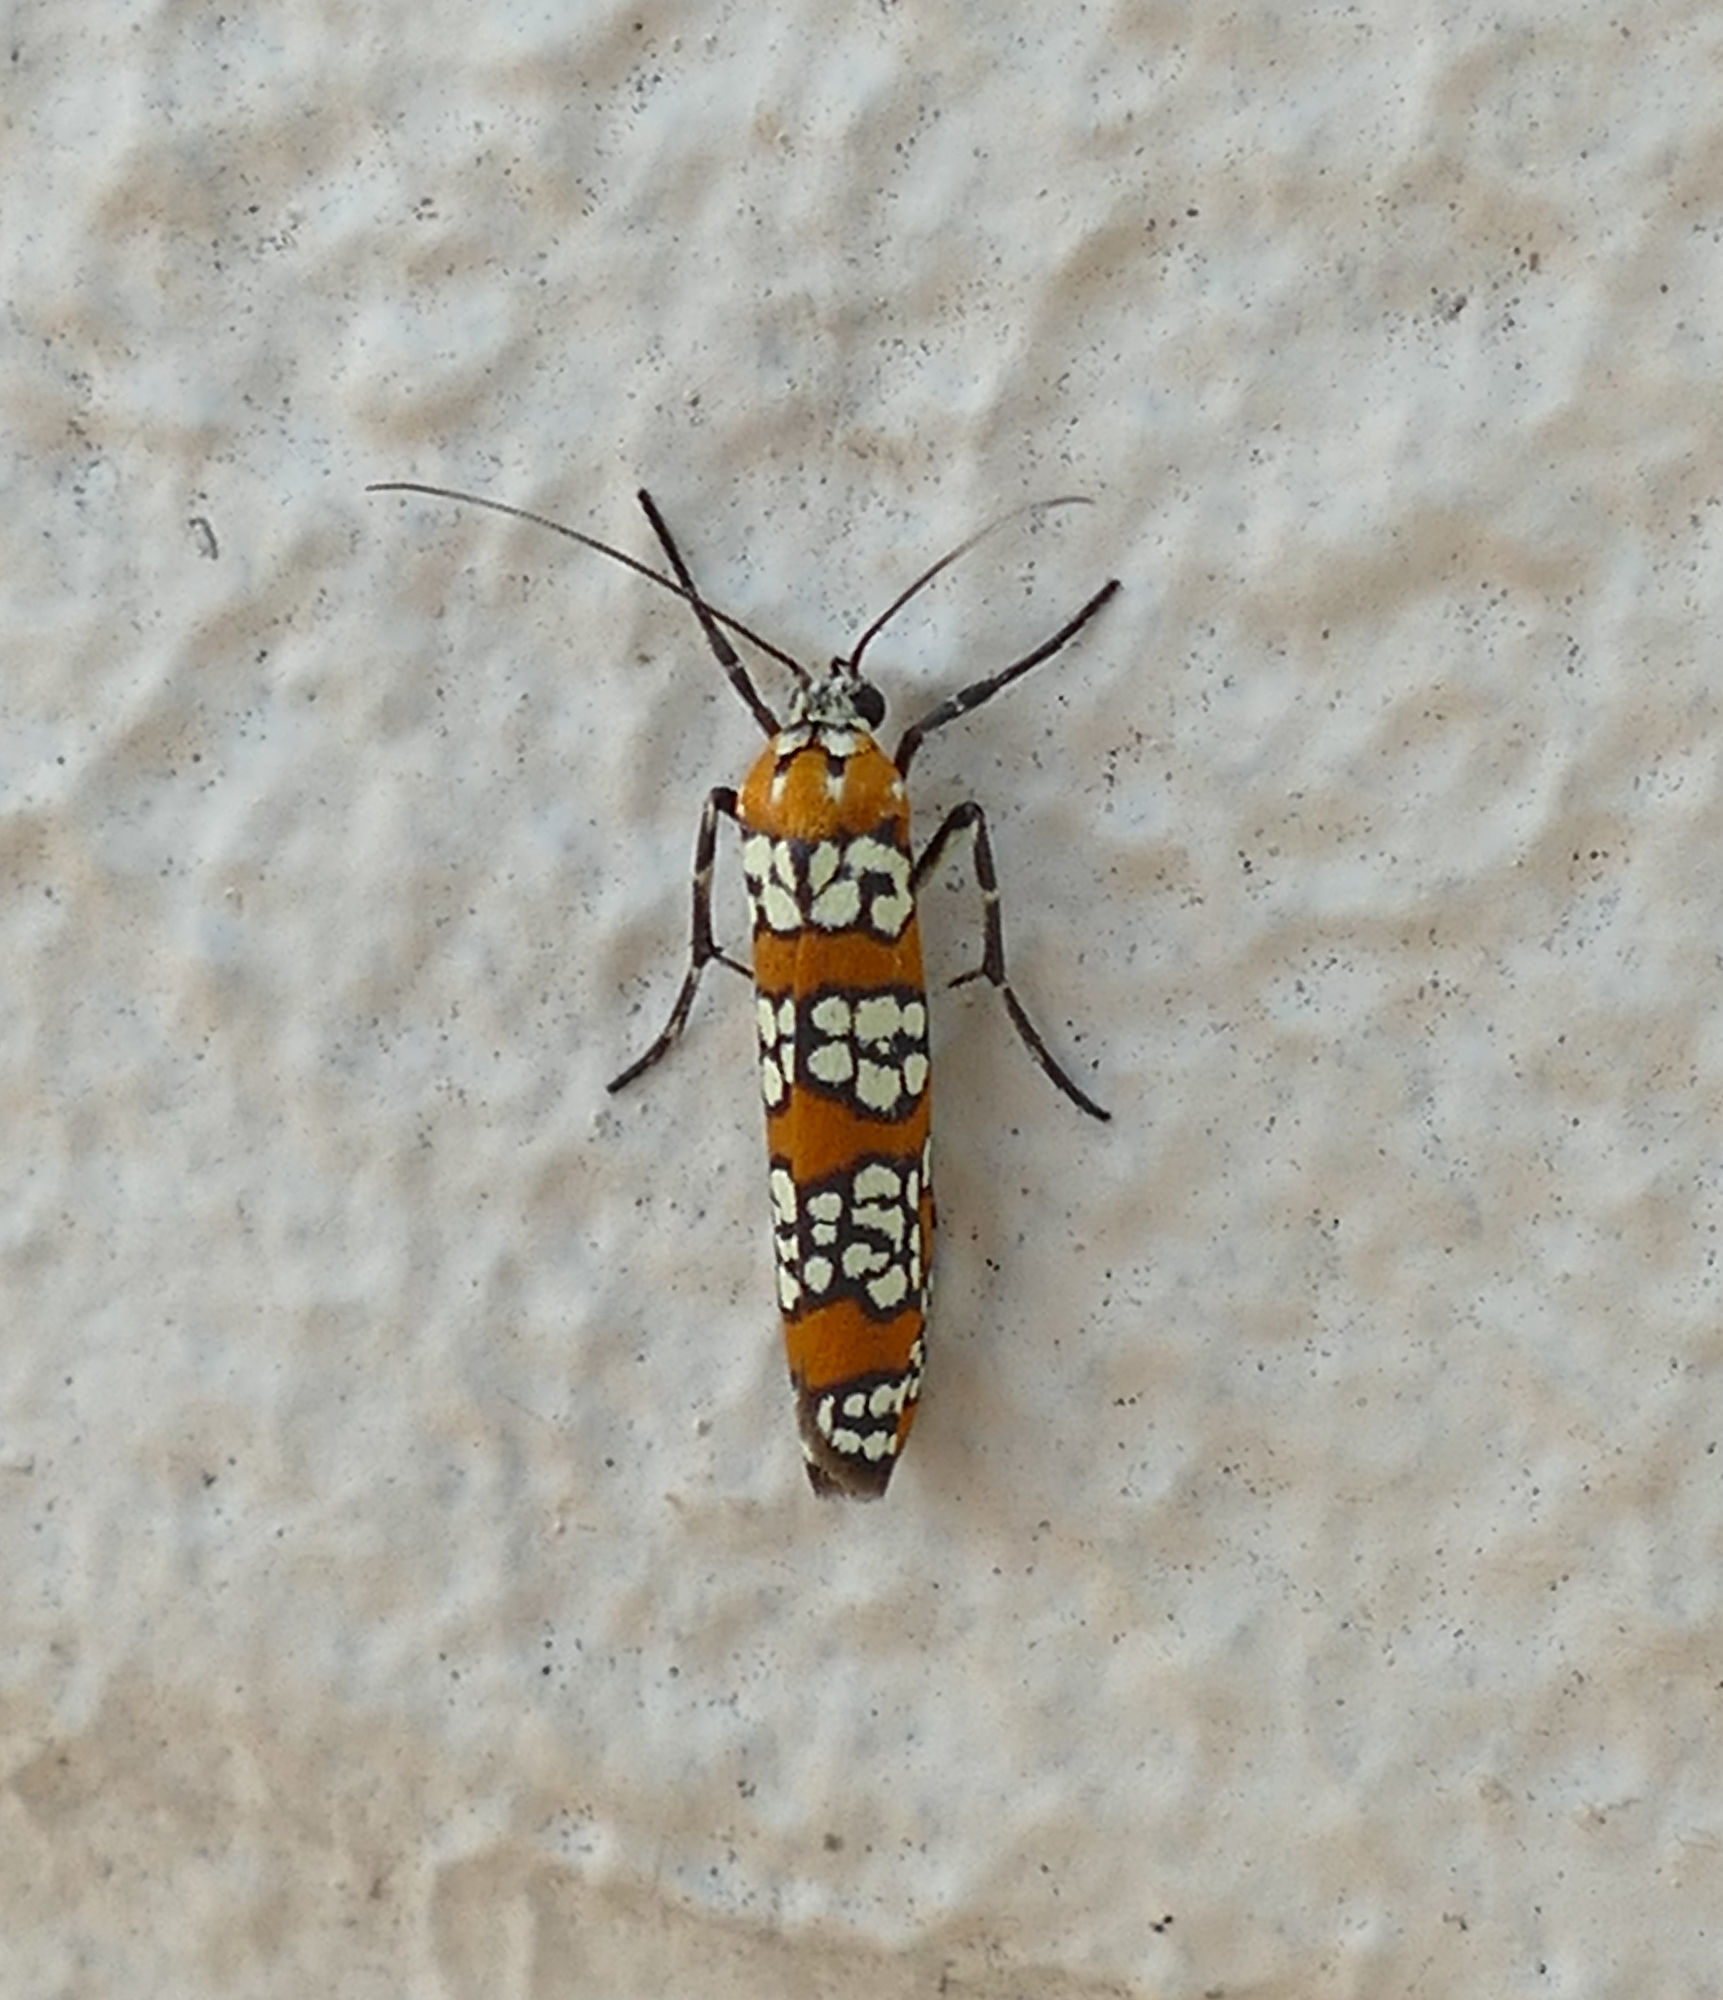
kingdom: Animalia
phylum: Arthropoda
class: Insecta
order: Lepidoptera
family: Attevidae
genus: Atteva
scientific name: Atteva punctella
